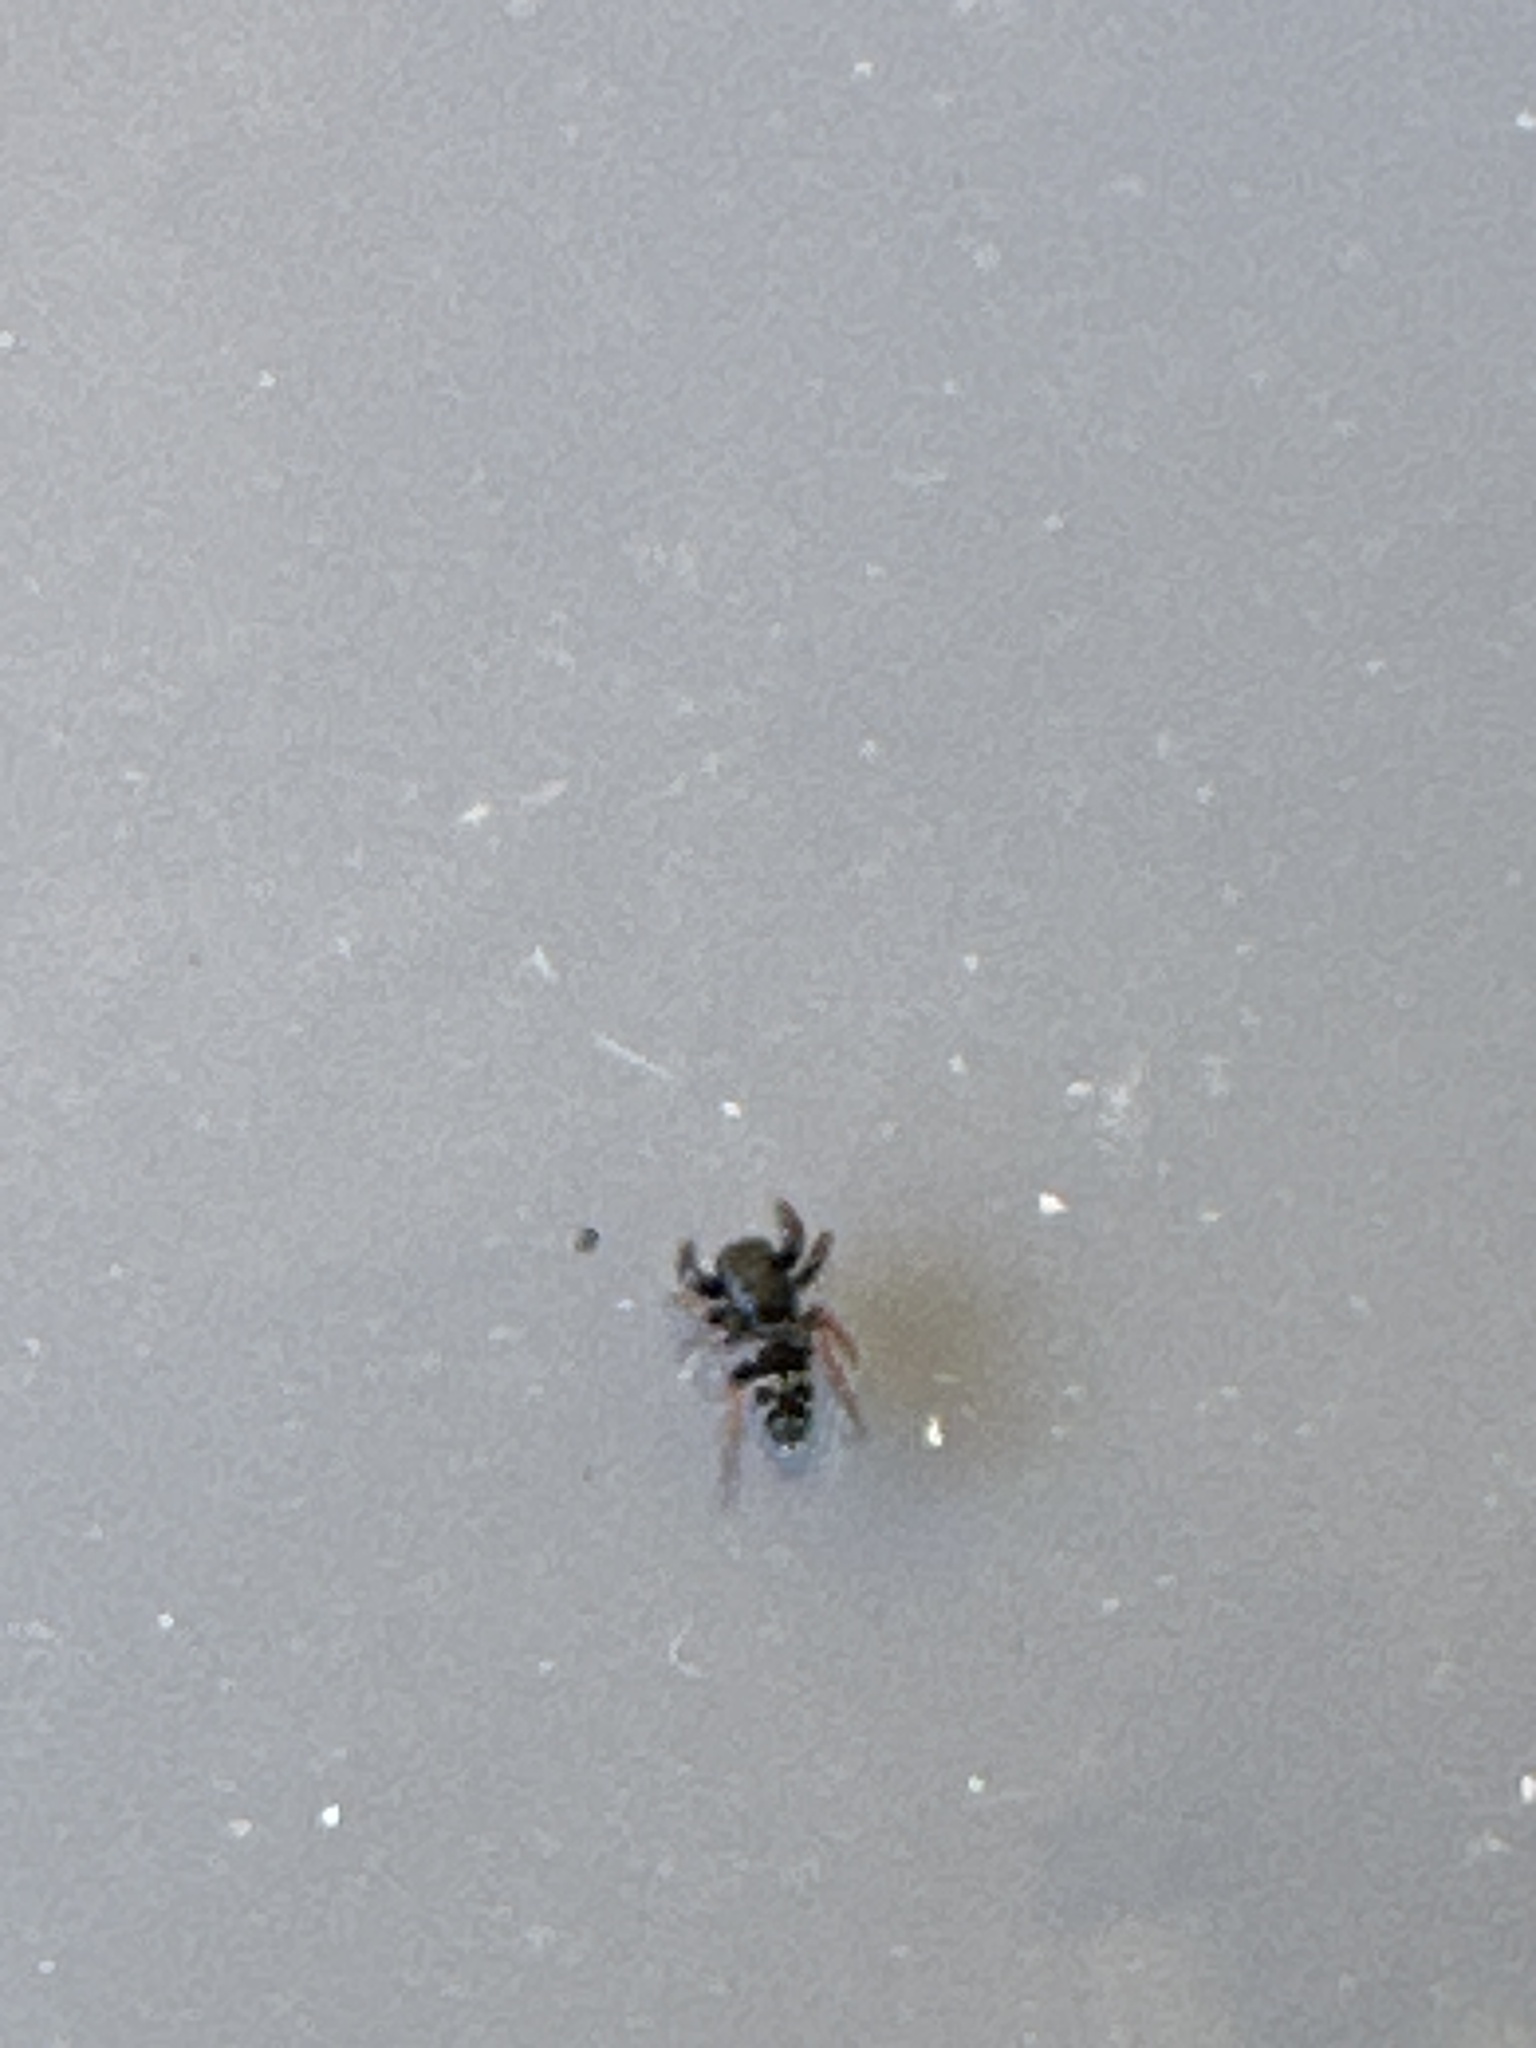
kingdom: Animalia
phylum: Arthropoda
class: Arachnida
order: Araneae
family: Salticidae
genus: Apricia
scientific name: Apricia jovialis
